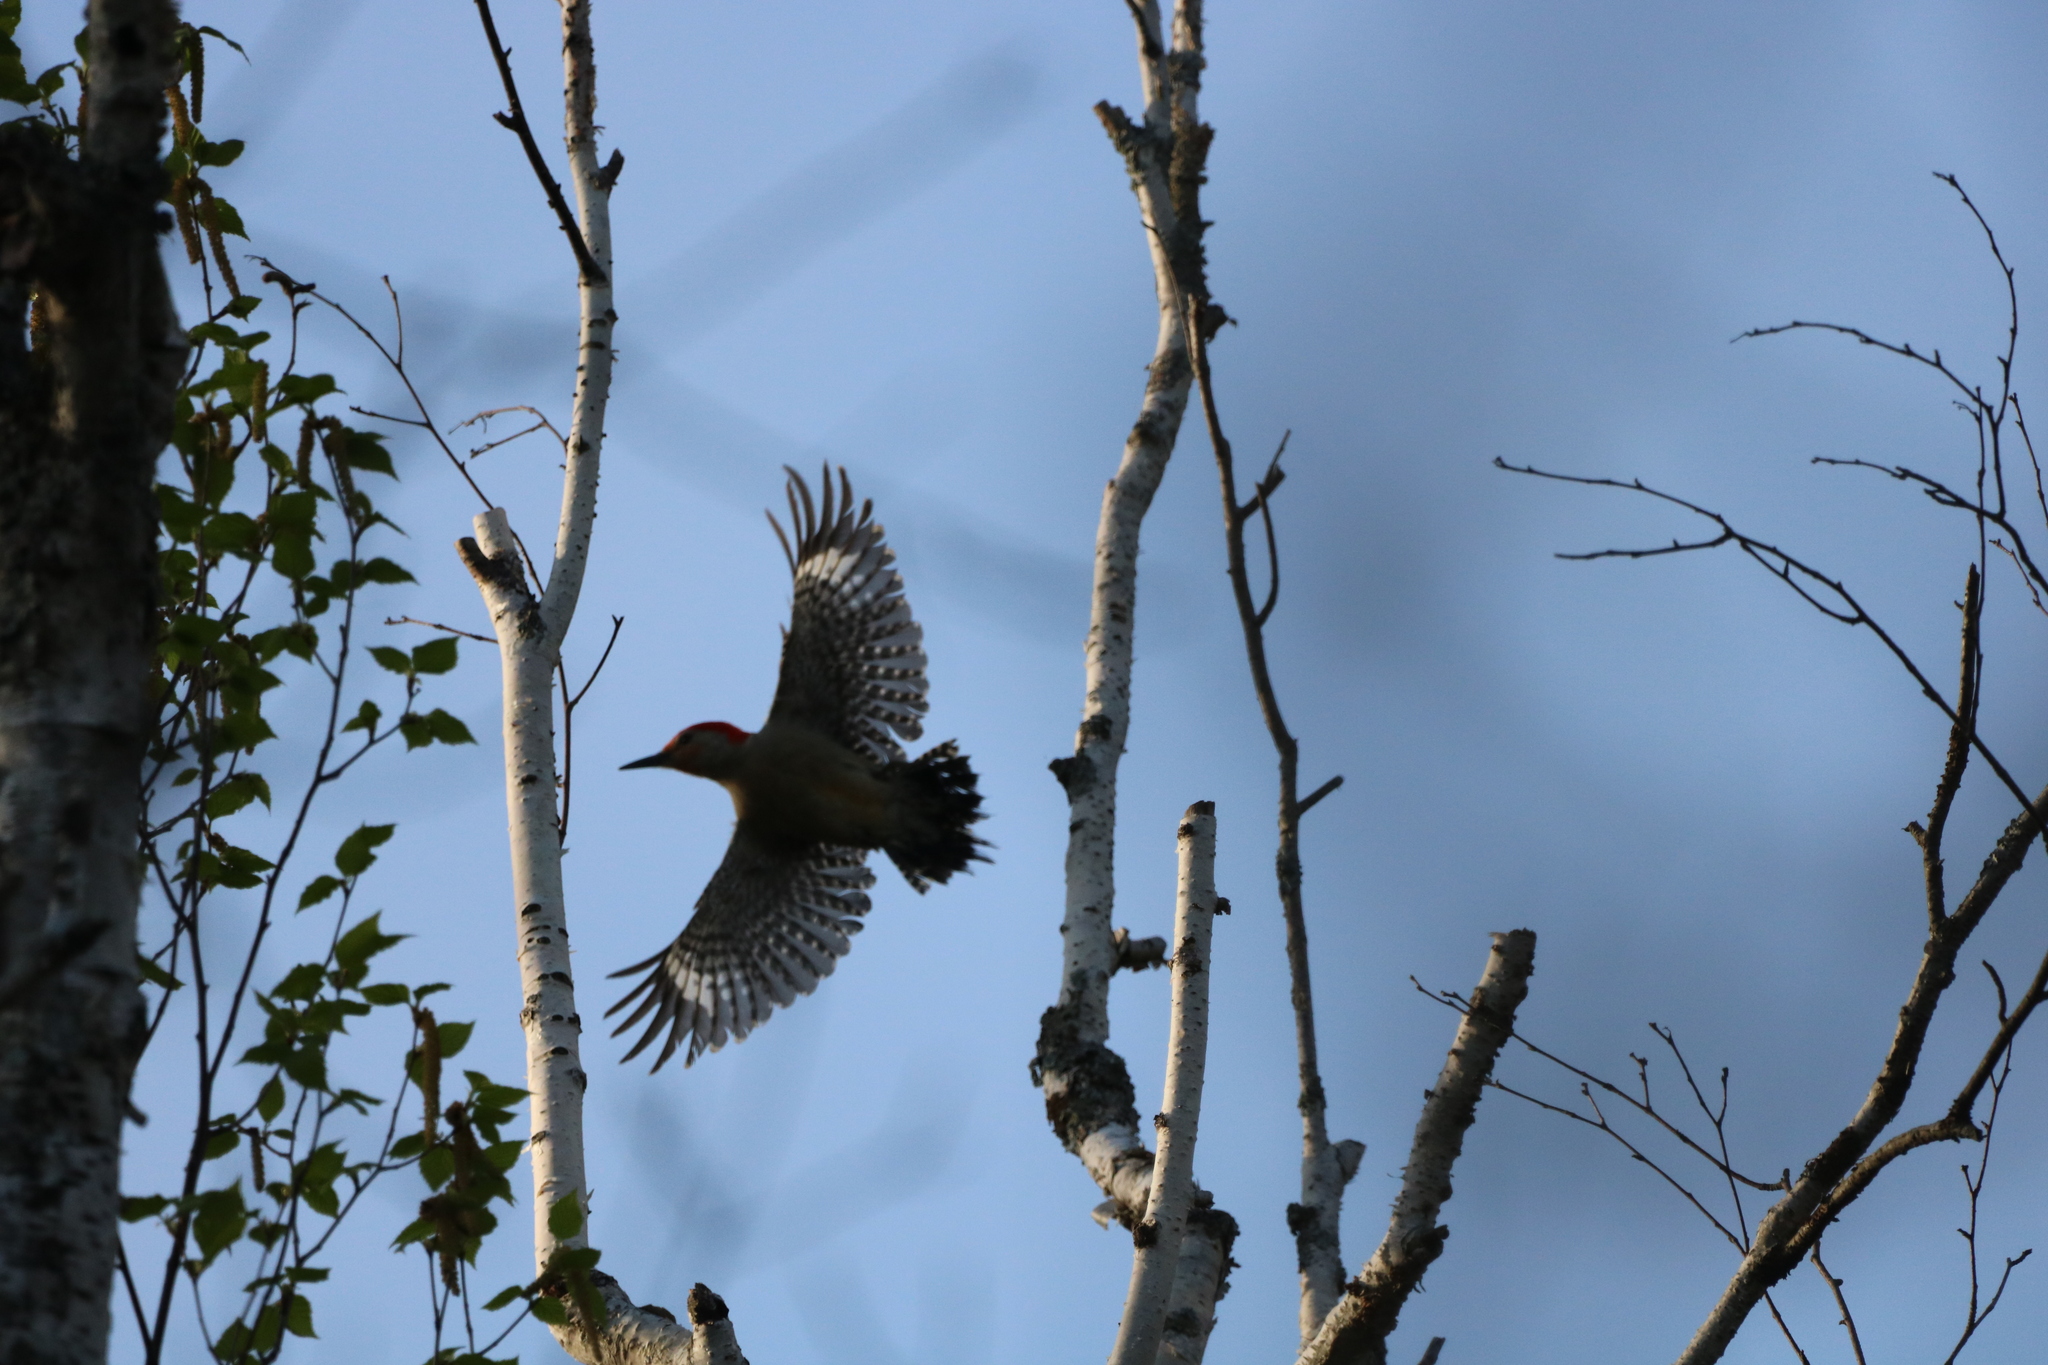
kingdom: Animalia
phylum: Chordata
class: Aves
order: Piciformes
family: Picidae
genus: Melanerpes
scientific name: Melanerpes carolinus
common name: Red-bellied woodpecker
